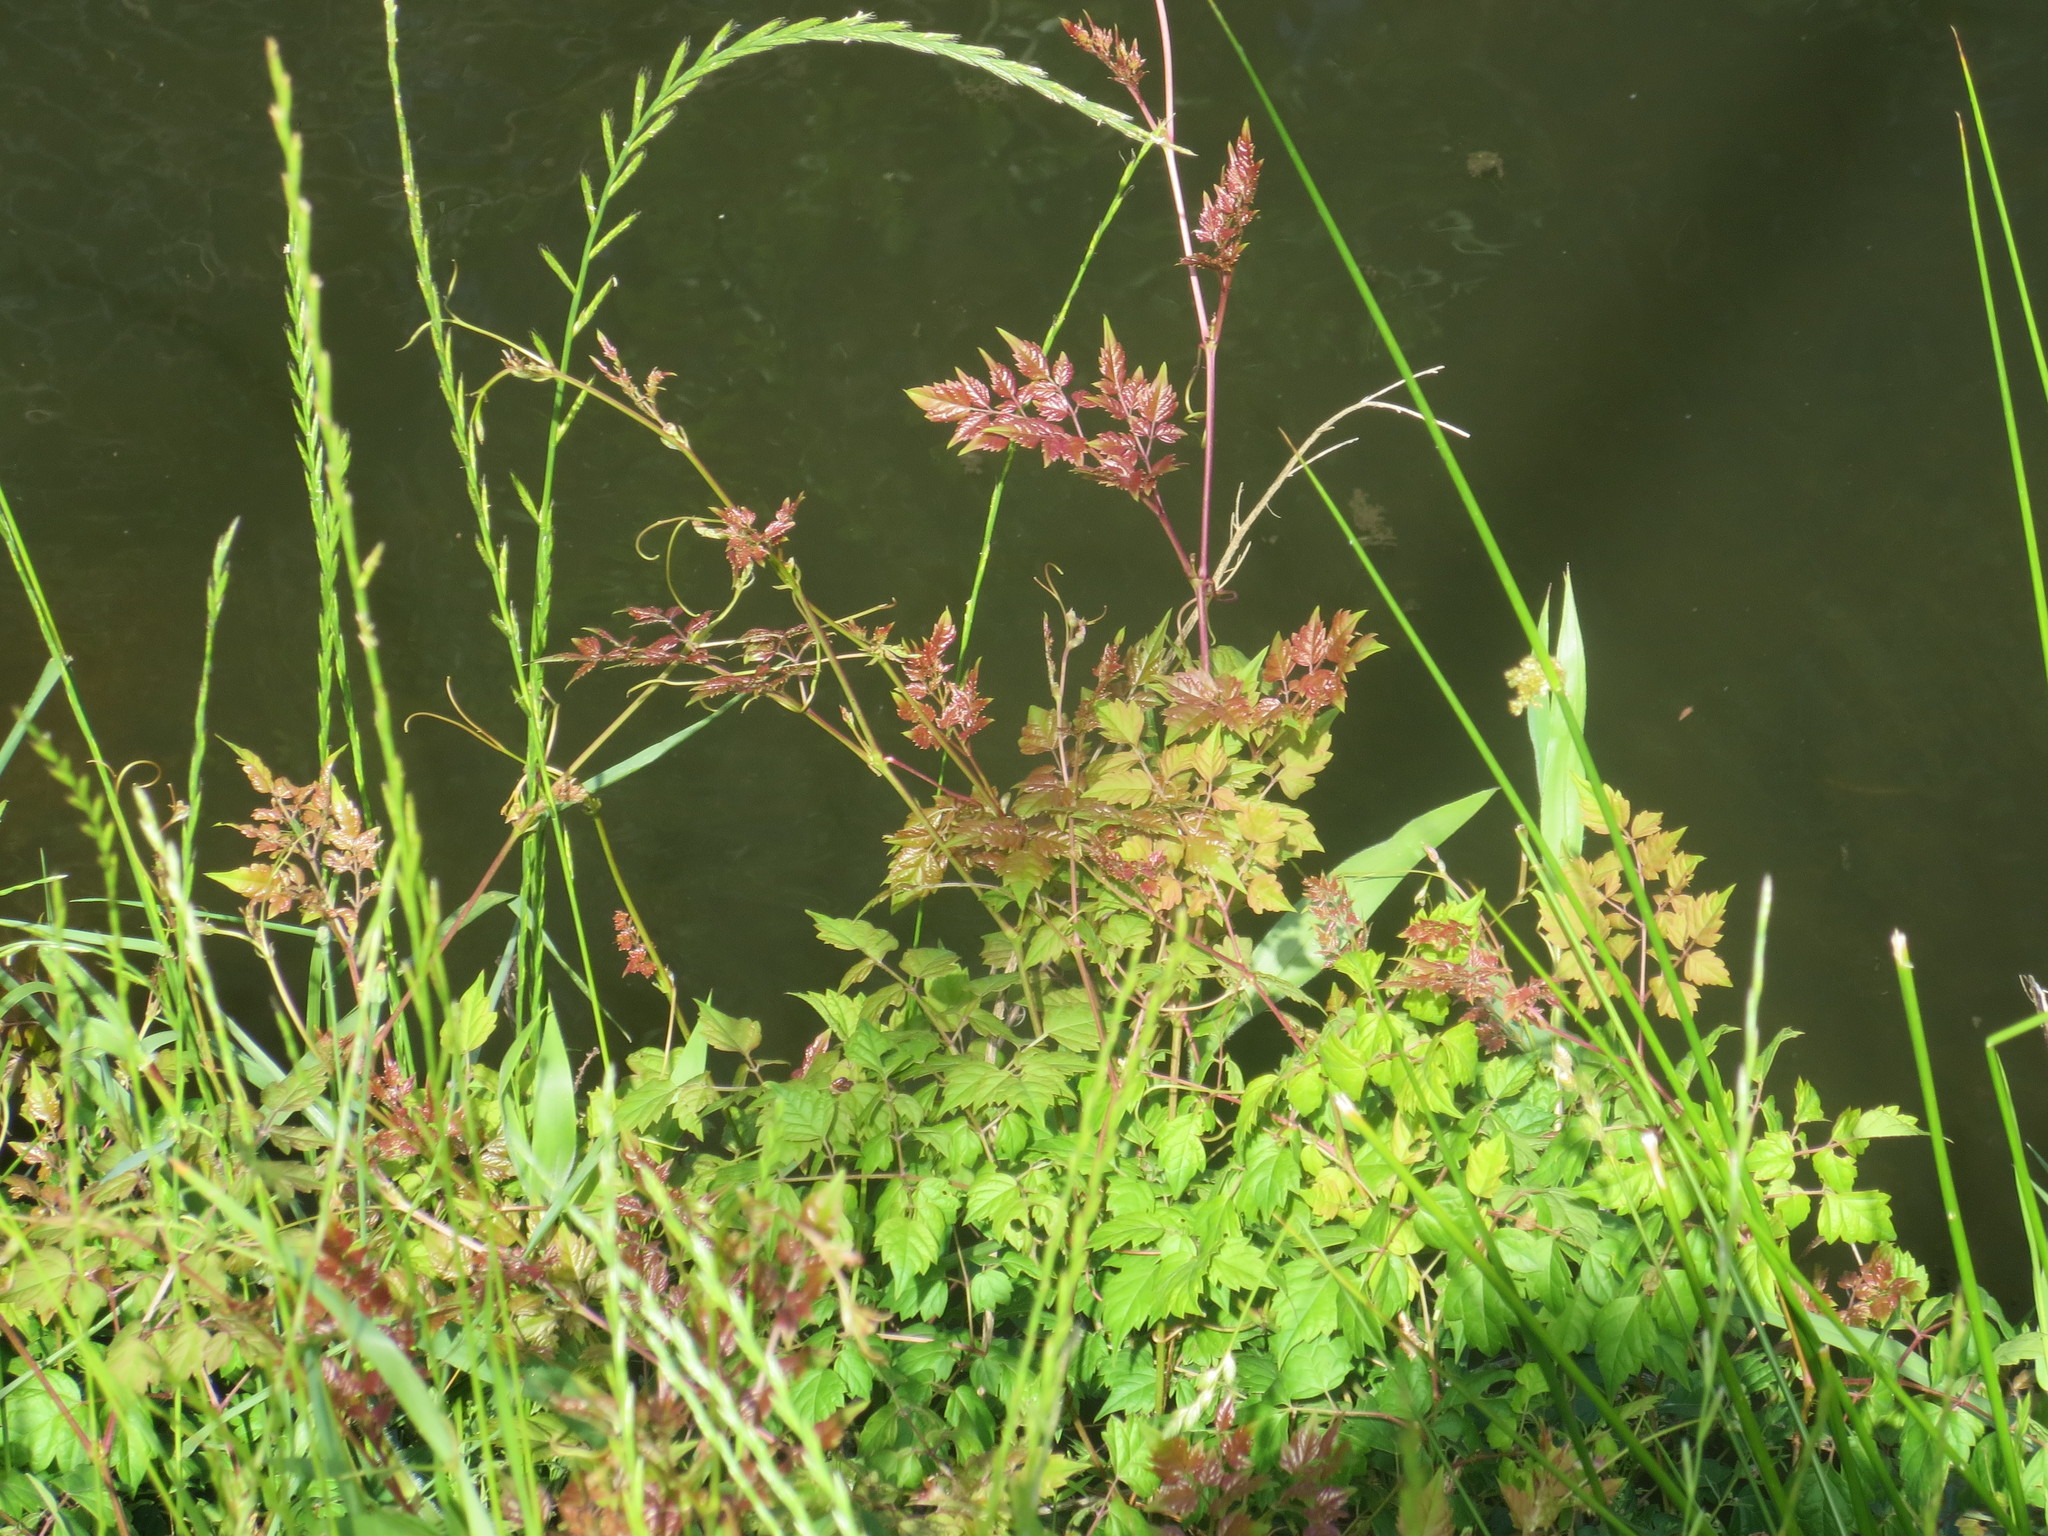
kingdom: Plantae
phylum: Tracheophyta
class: Magnoliopsida
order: Vitales
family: Vitaceae
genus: Nekemias
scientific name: Nekemias arborea
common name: Peppervine
